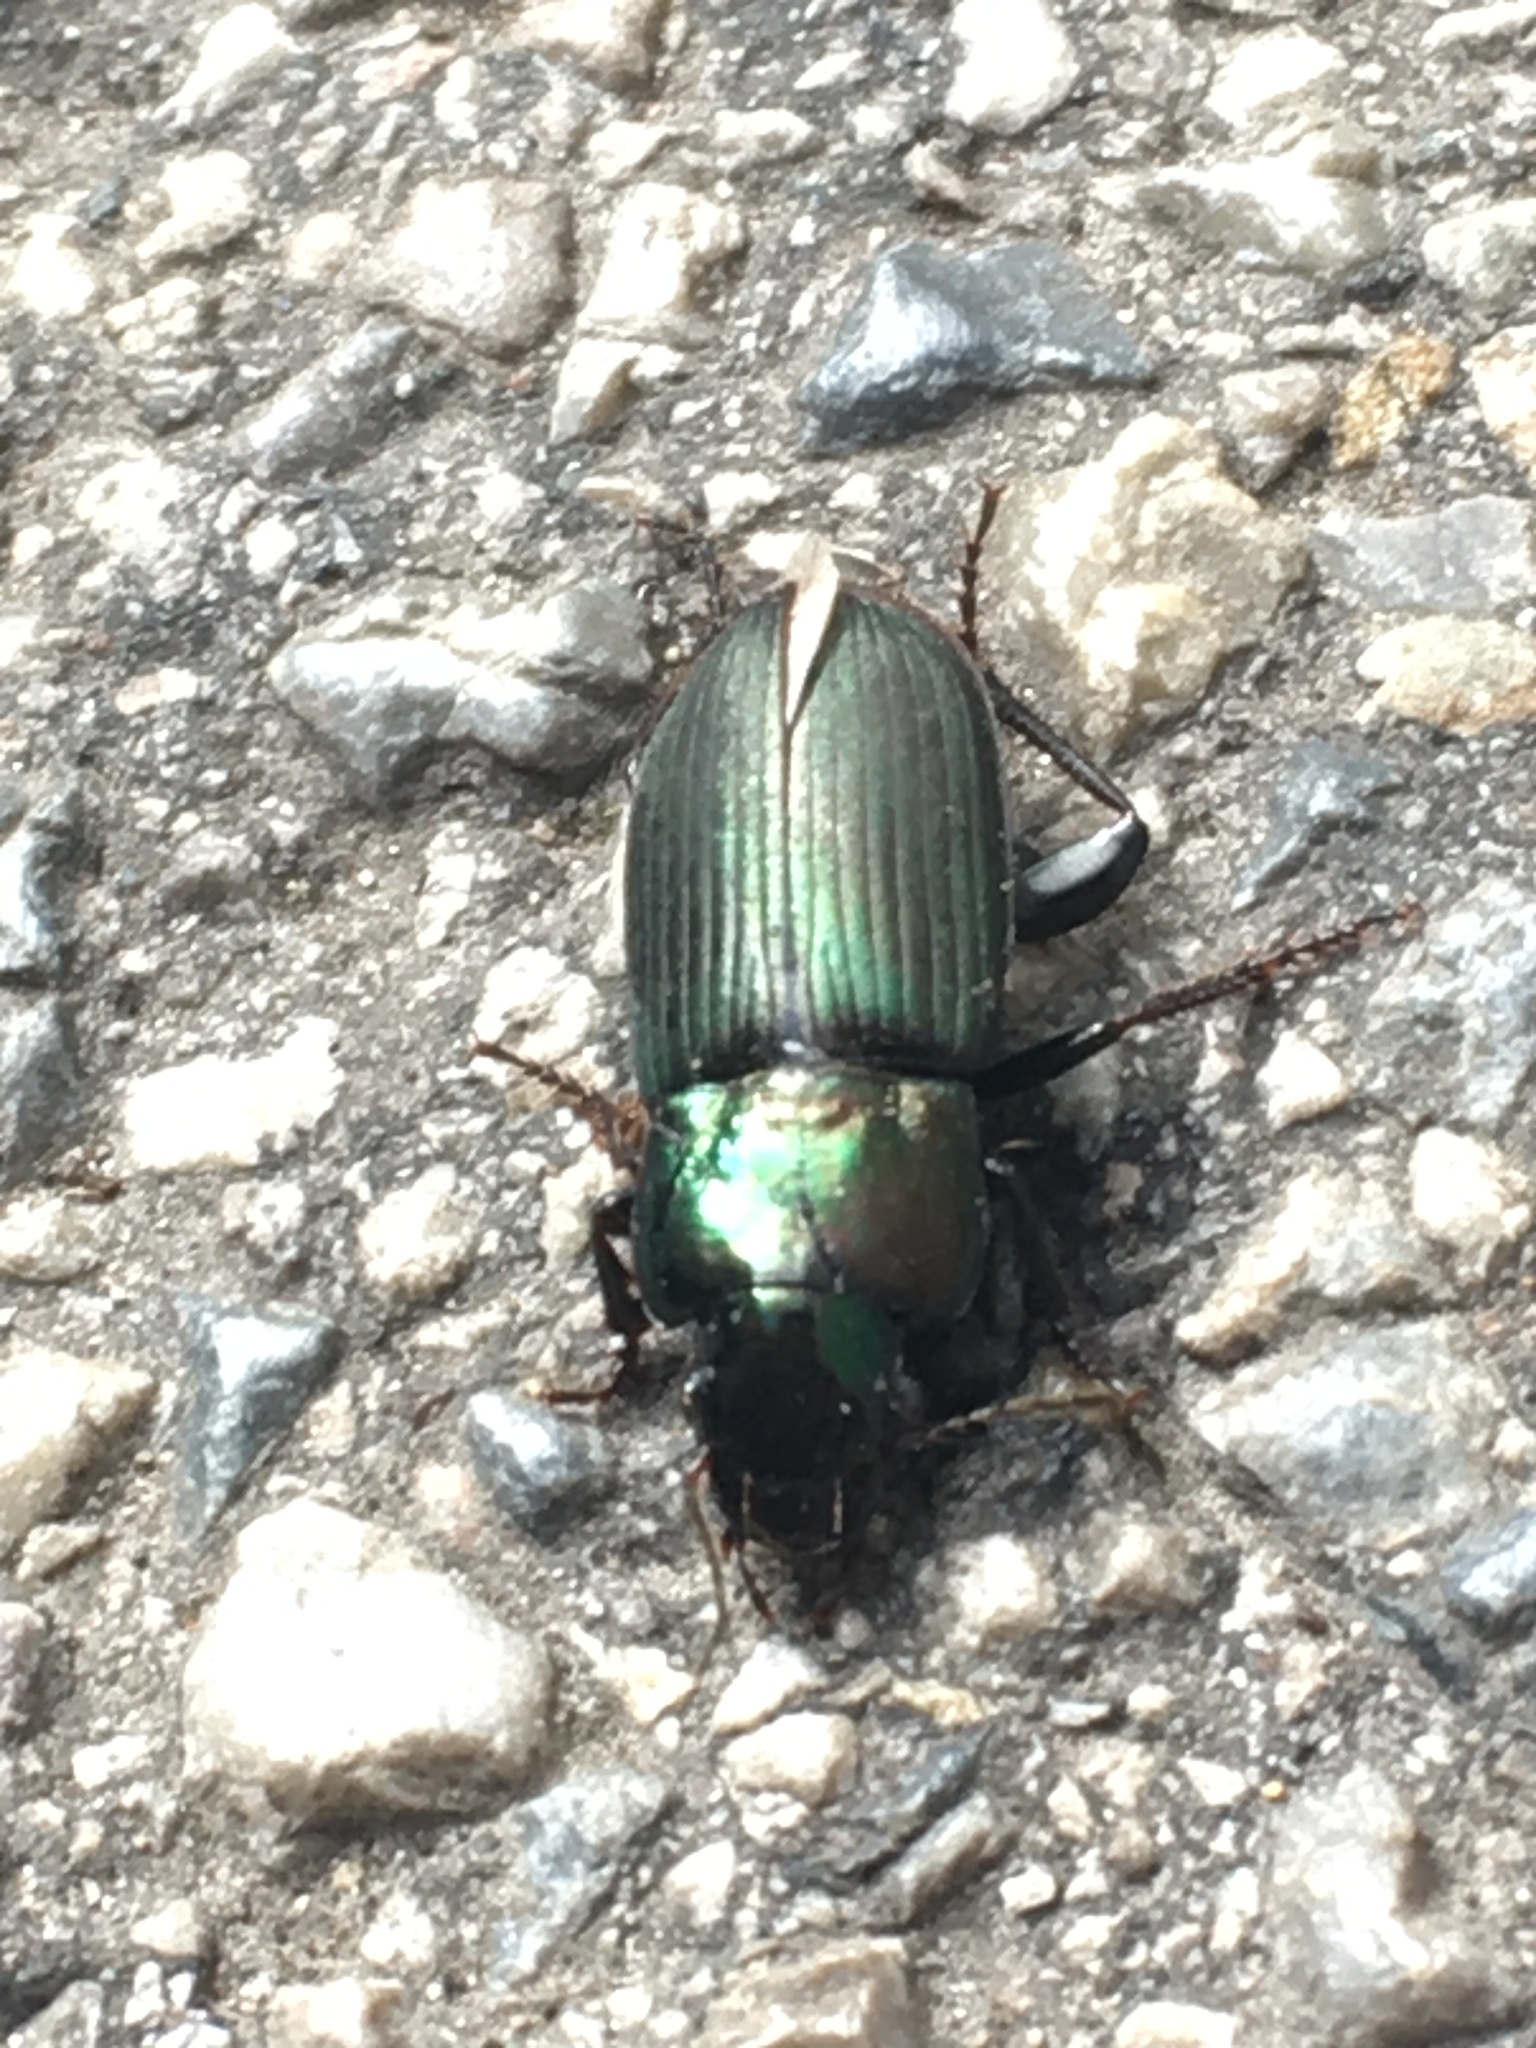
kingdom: Animalia
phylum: Arthropoda
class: Insecta
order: Coleoptera
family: Carabidae
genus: Harpalus
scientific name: Harpalus distinguendus
